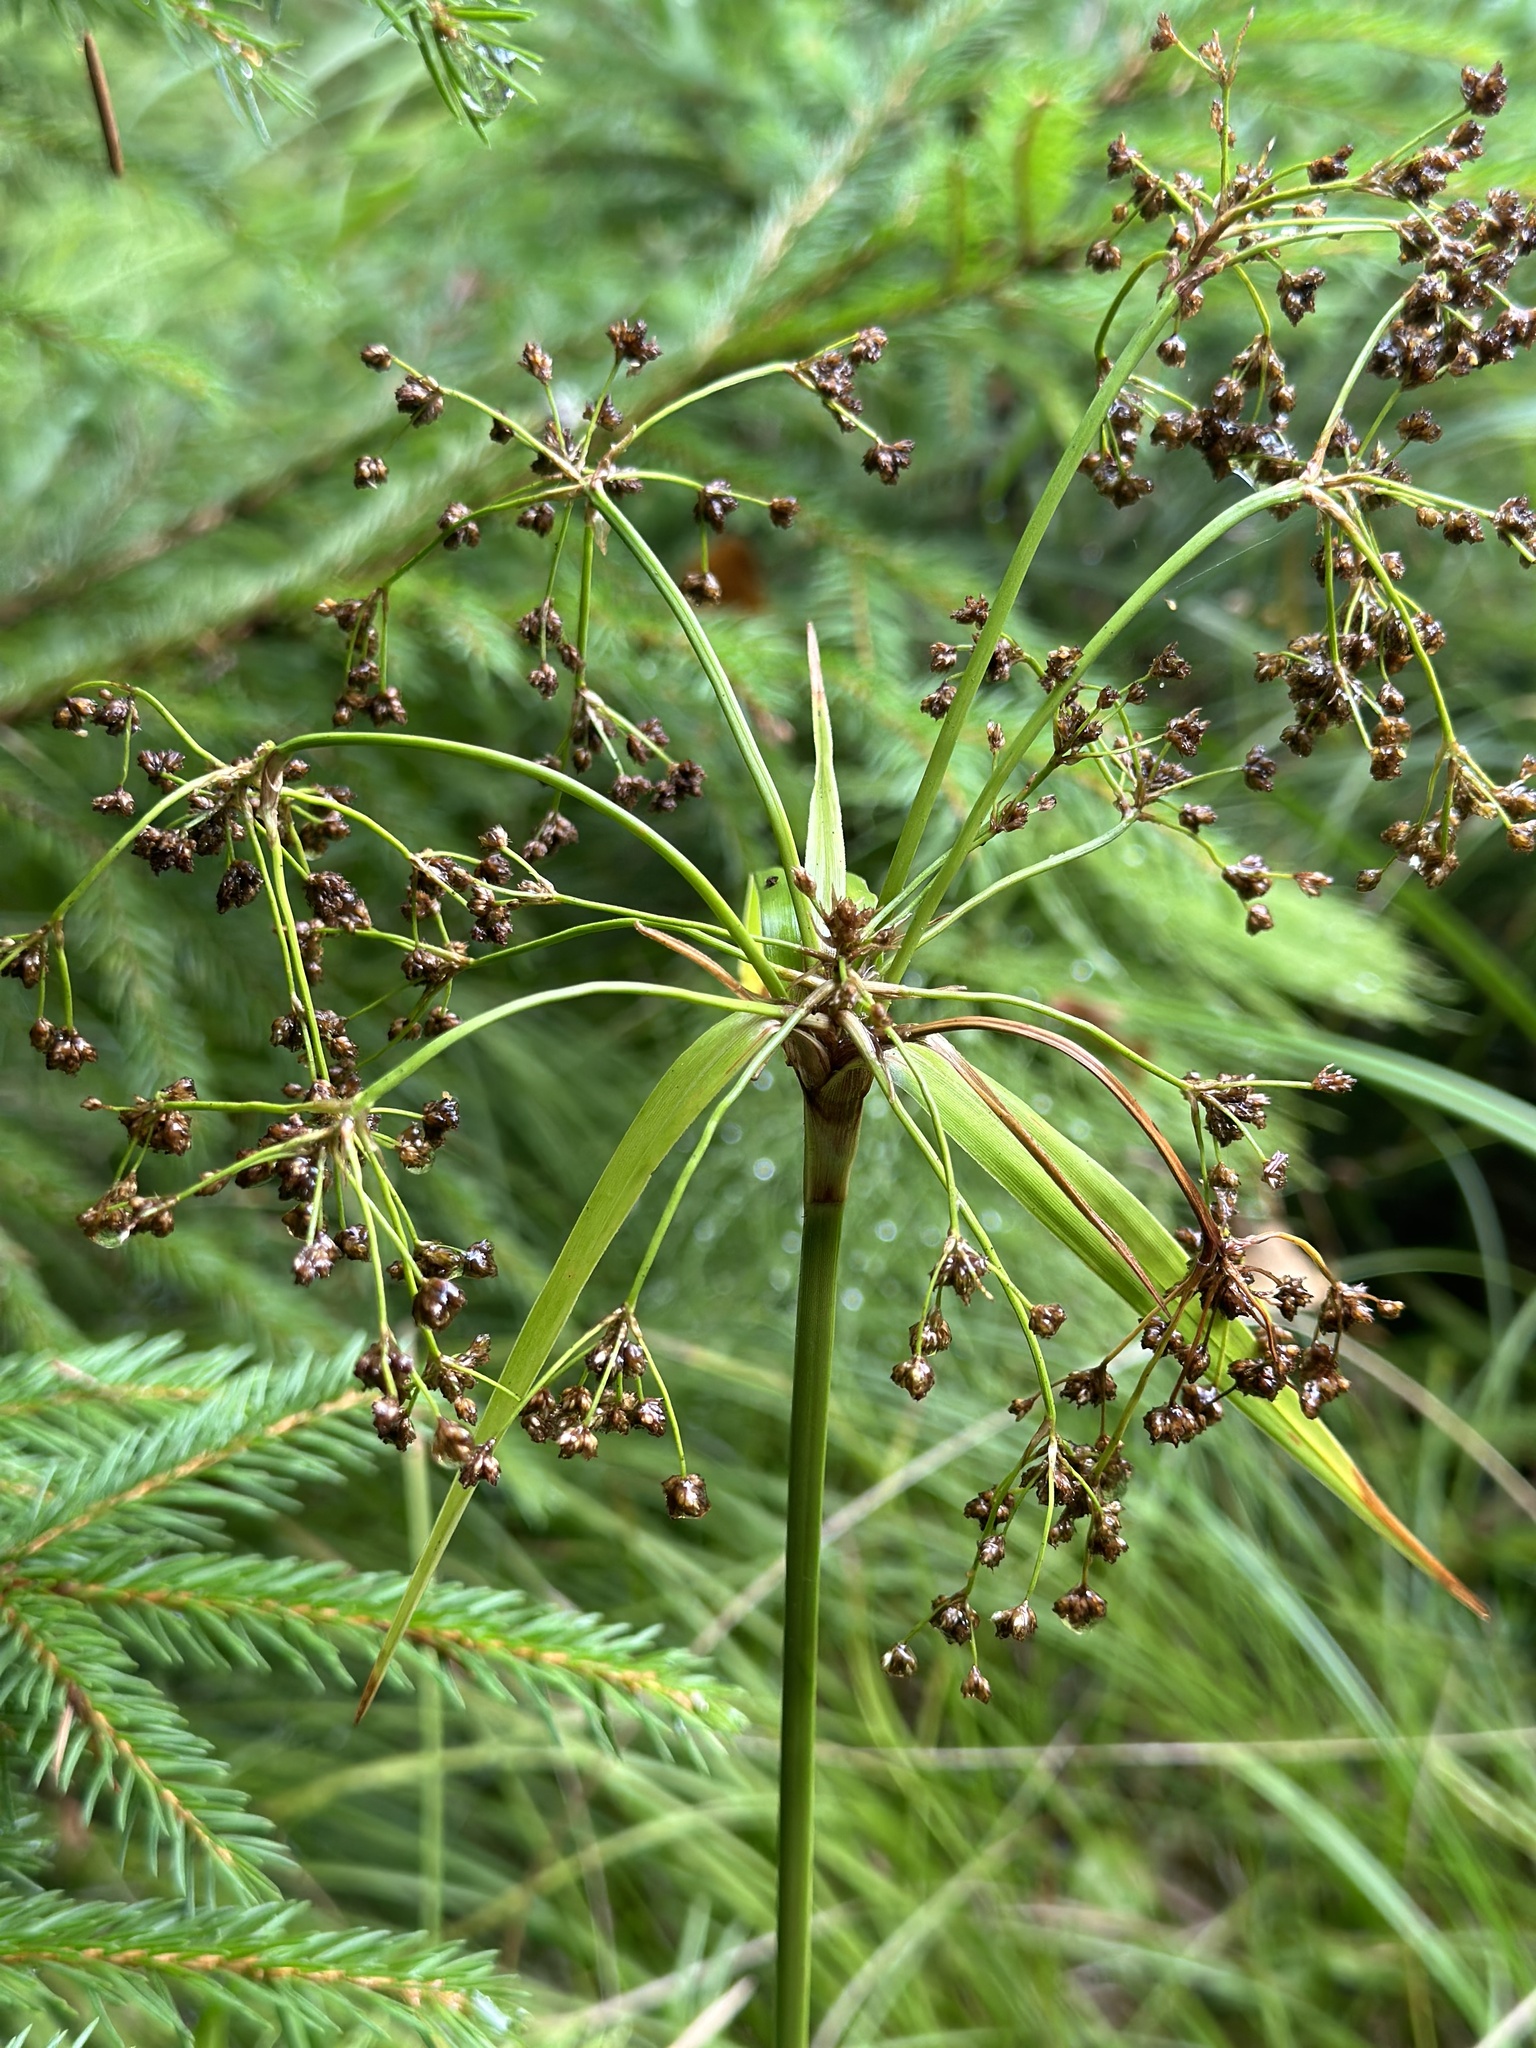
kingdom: Plantae
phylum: Tracheophyta
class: Liliopsida
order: Poales
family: Cyperaceae
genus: Scirpus
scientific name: Scirpus sylvaticus
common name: Wood club-rush
